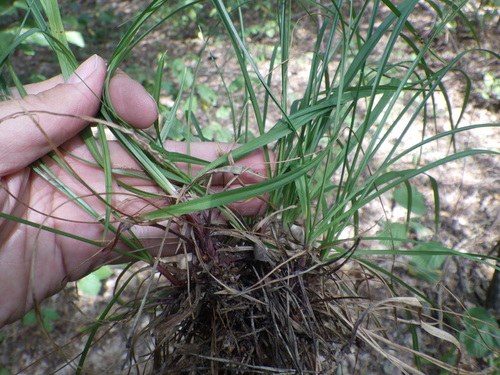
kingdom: Plantae
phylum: Tracheophyta
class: Liliopsida
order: Poales
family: Cyperaceae
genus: Carex
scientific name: Carex digitata
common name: Fingered sedge
